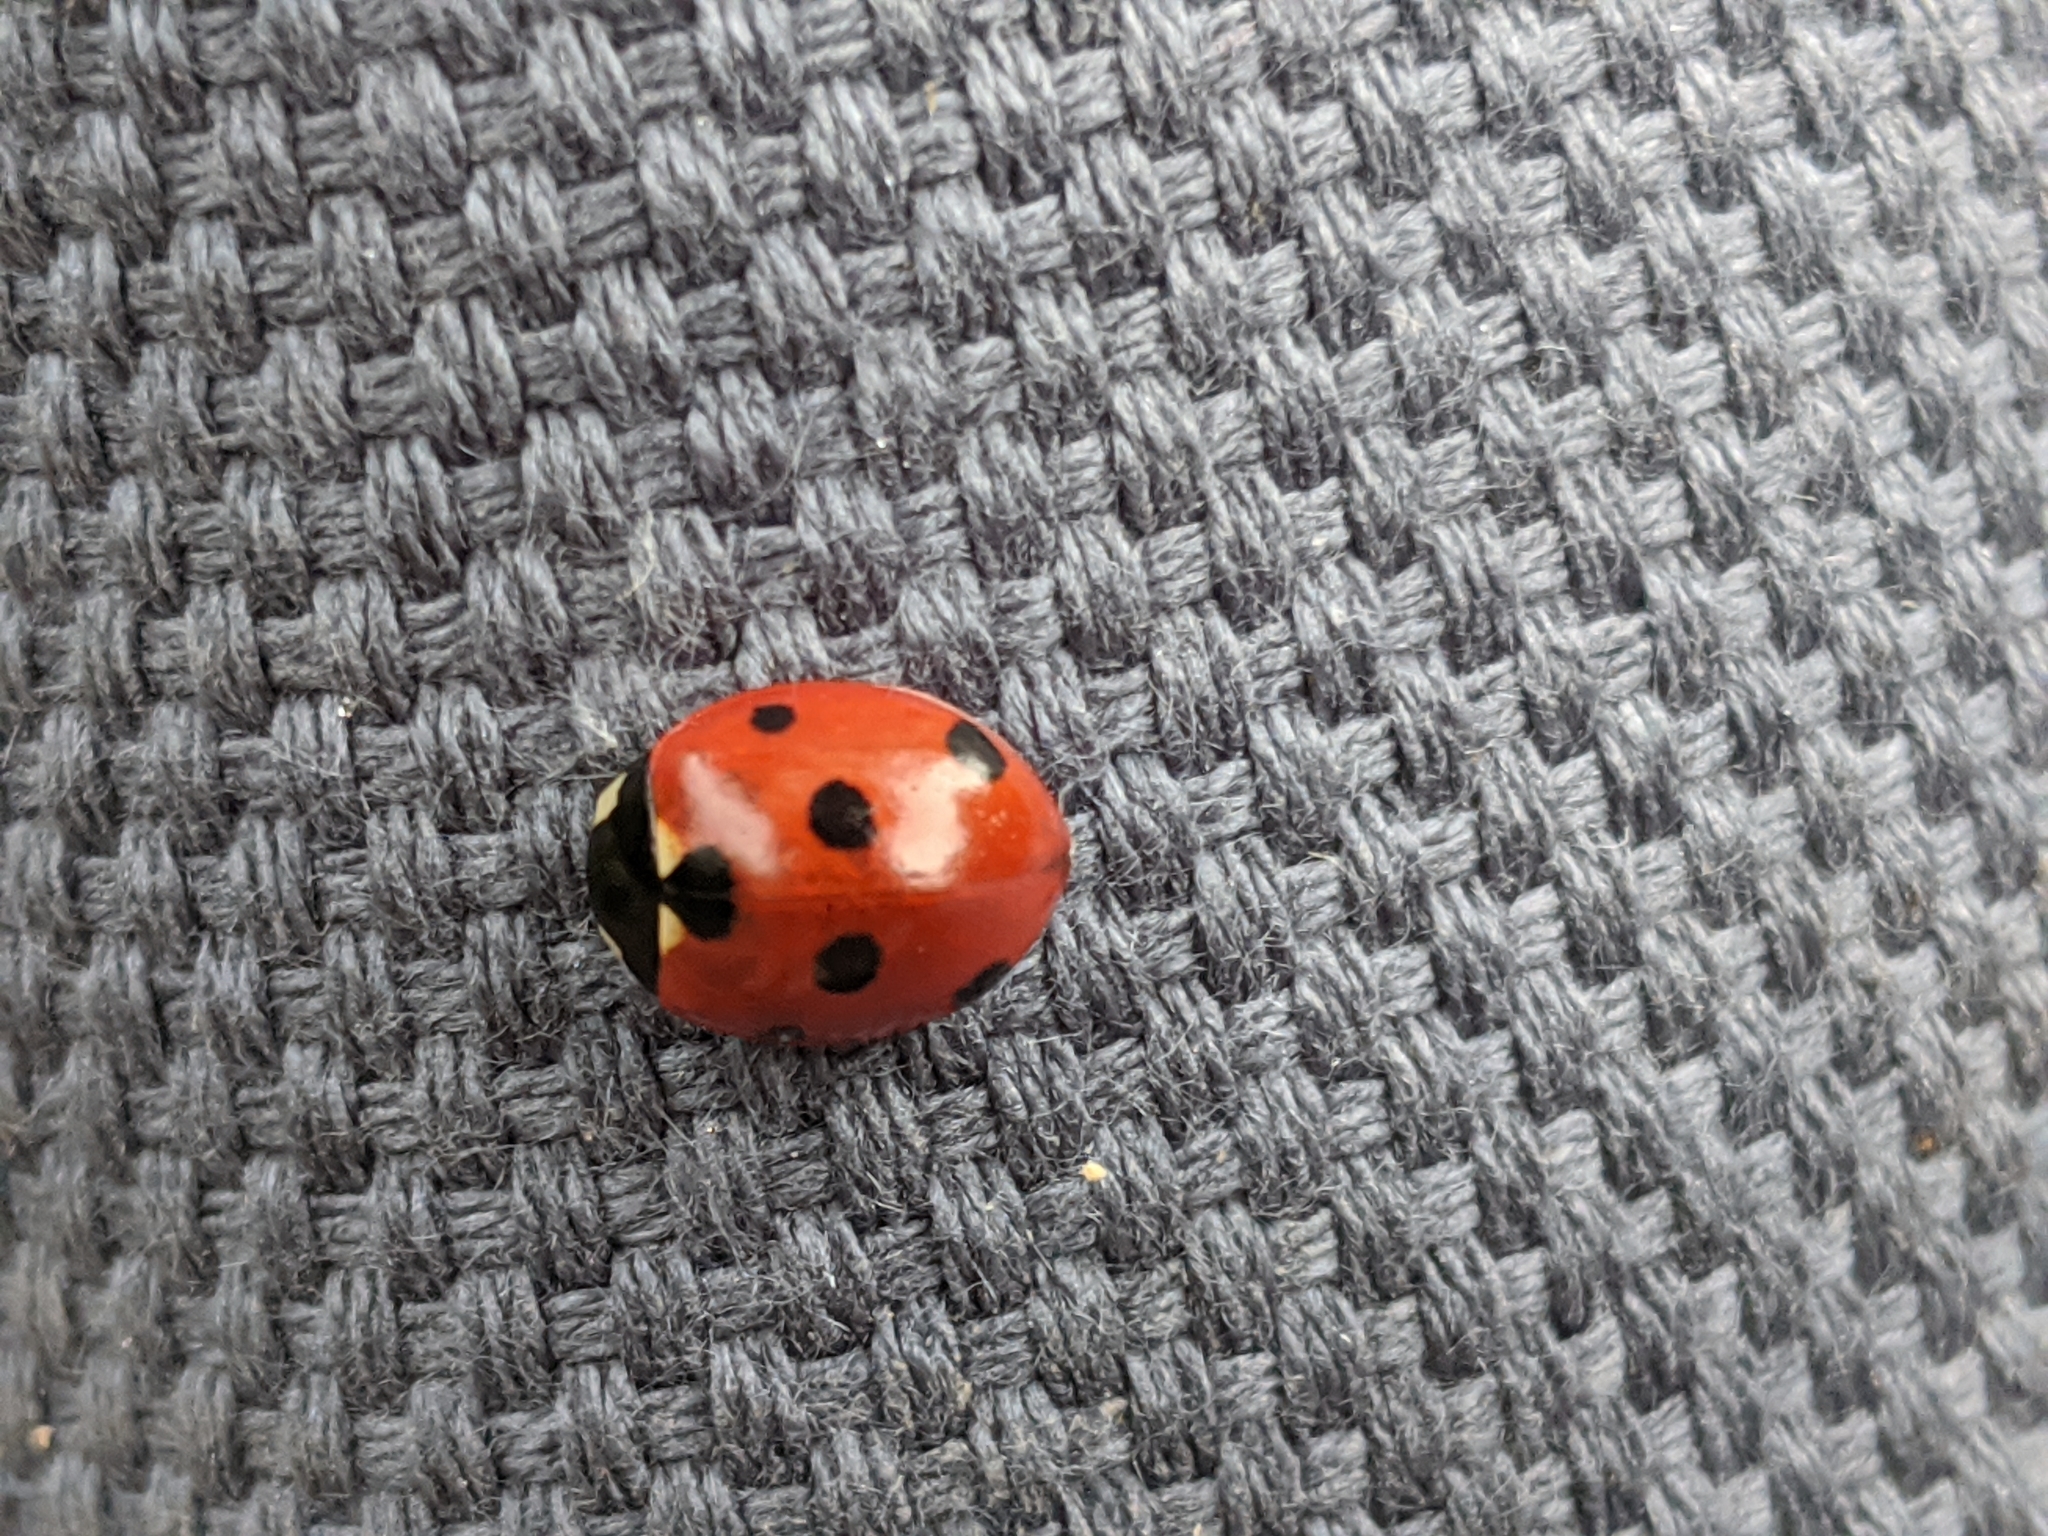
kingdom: Animalia
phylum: Arthropoda
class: Insecta
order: Coleoptera
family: Coccinellidae
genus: Coccinella
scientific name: Coccinella septempunctata
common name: Sevenspotted lady beetle
